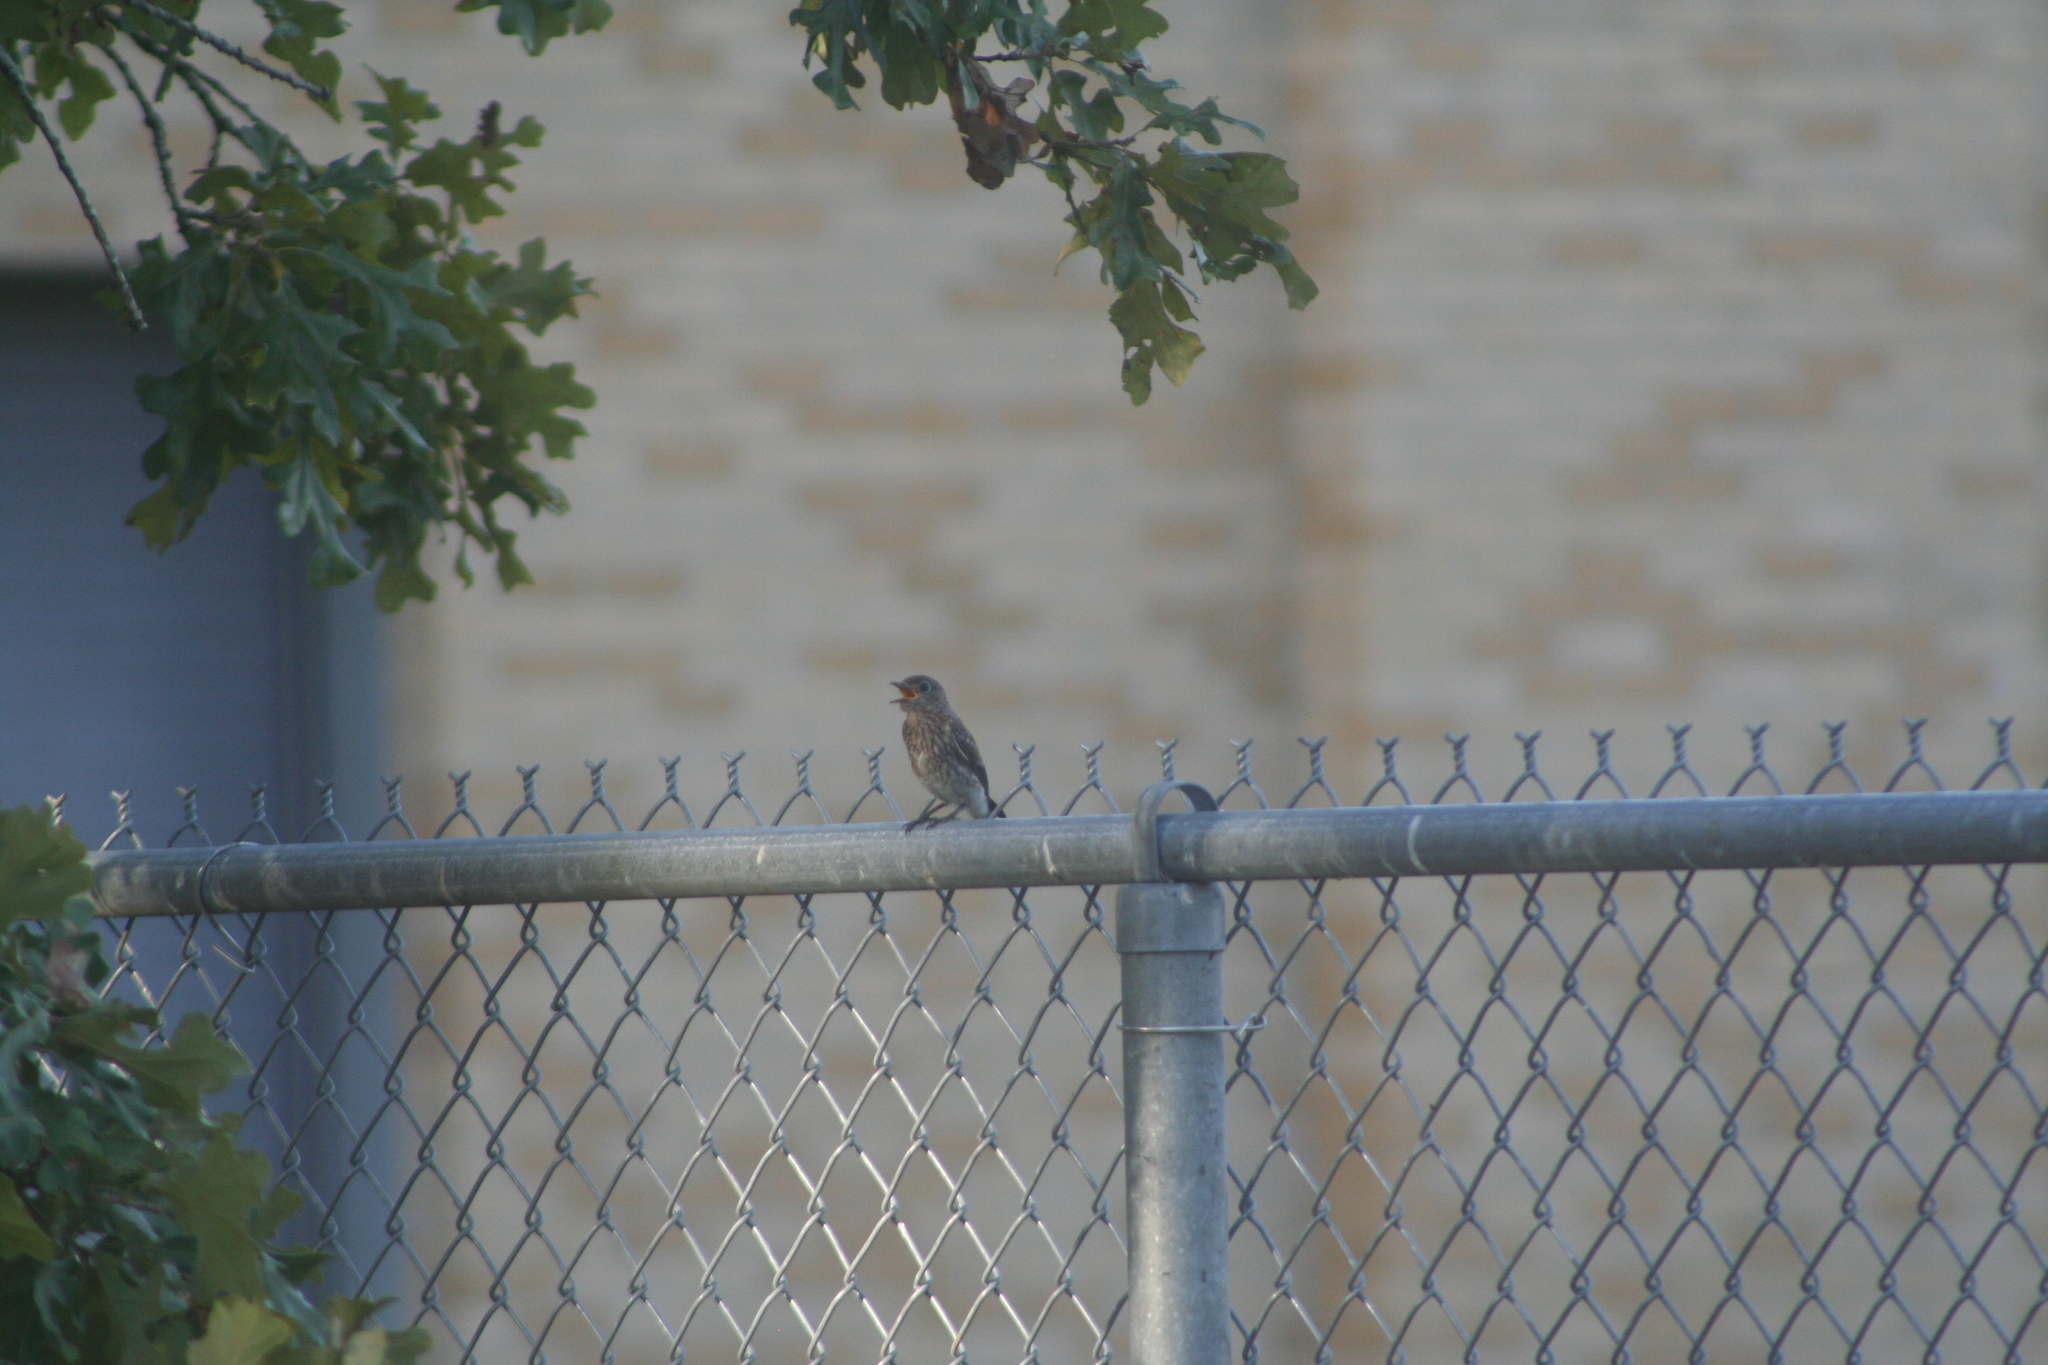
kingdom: Animalia
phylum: Chordata
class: Aves
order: Passeriformes
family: Turdidae
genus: Sialia
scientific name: Sialia sialis
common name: Eastern bluebird
